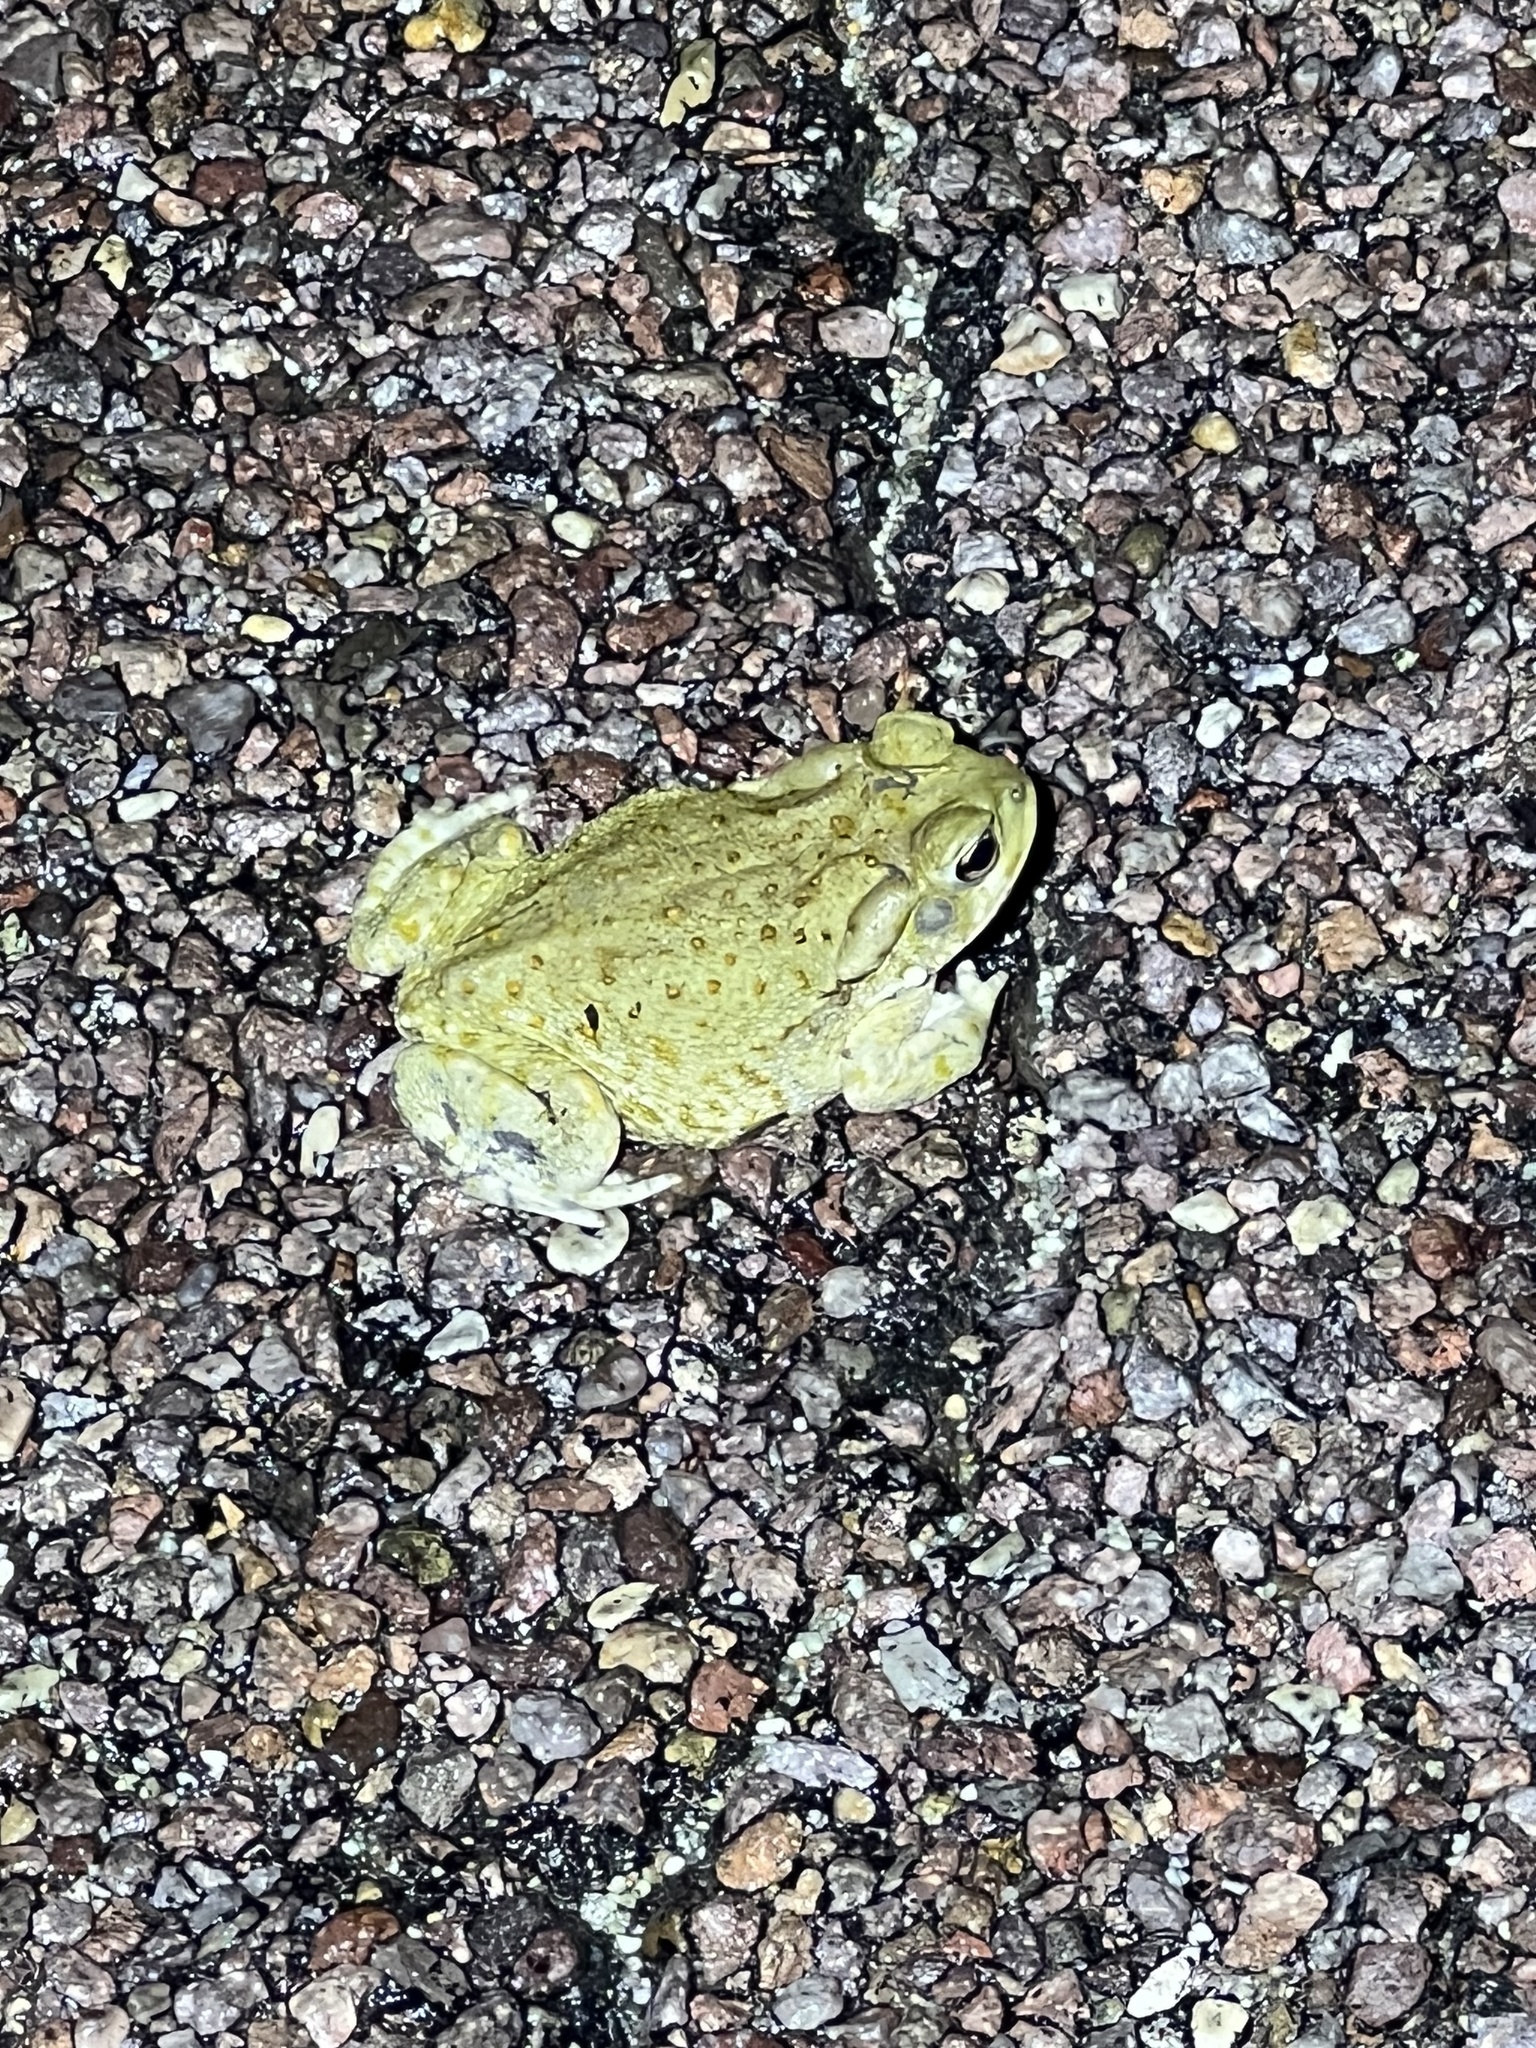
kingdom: Animalia
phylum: Chordata
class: Amphibia
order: Anura
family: Bufonidae
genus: Incilius
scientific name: Incilius alvarius
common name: Sonoran desert toad
